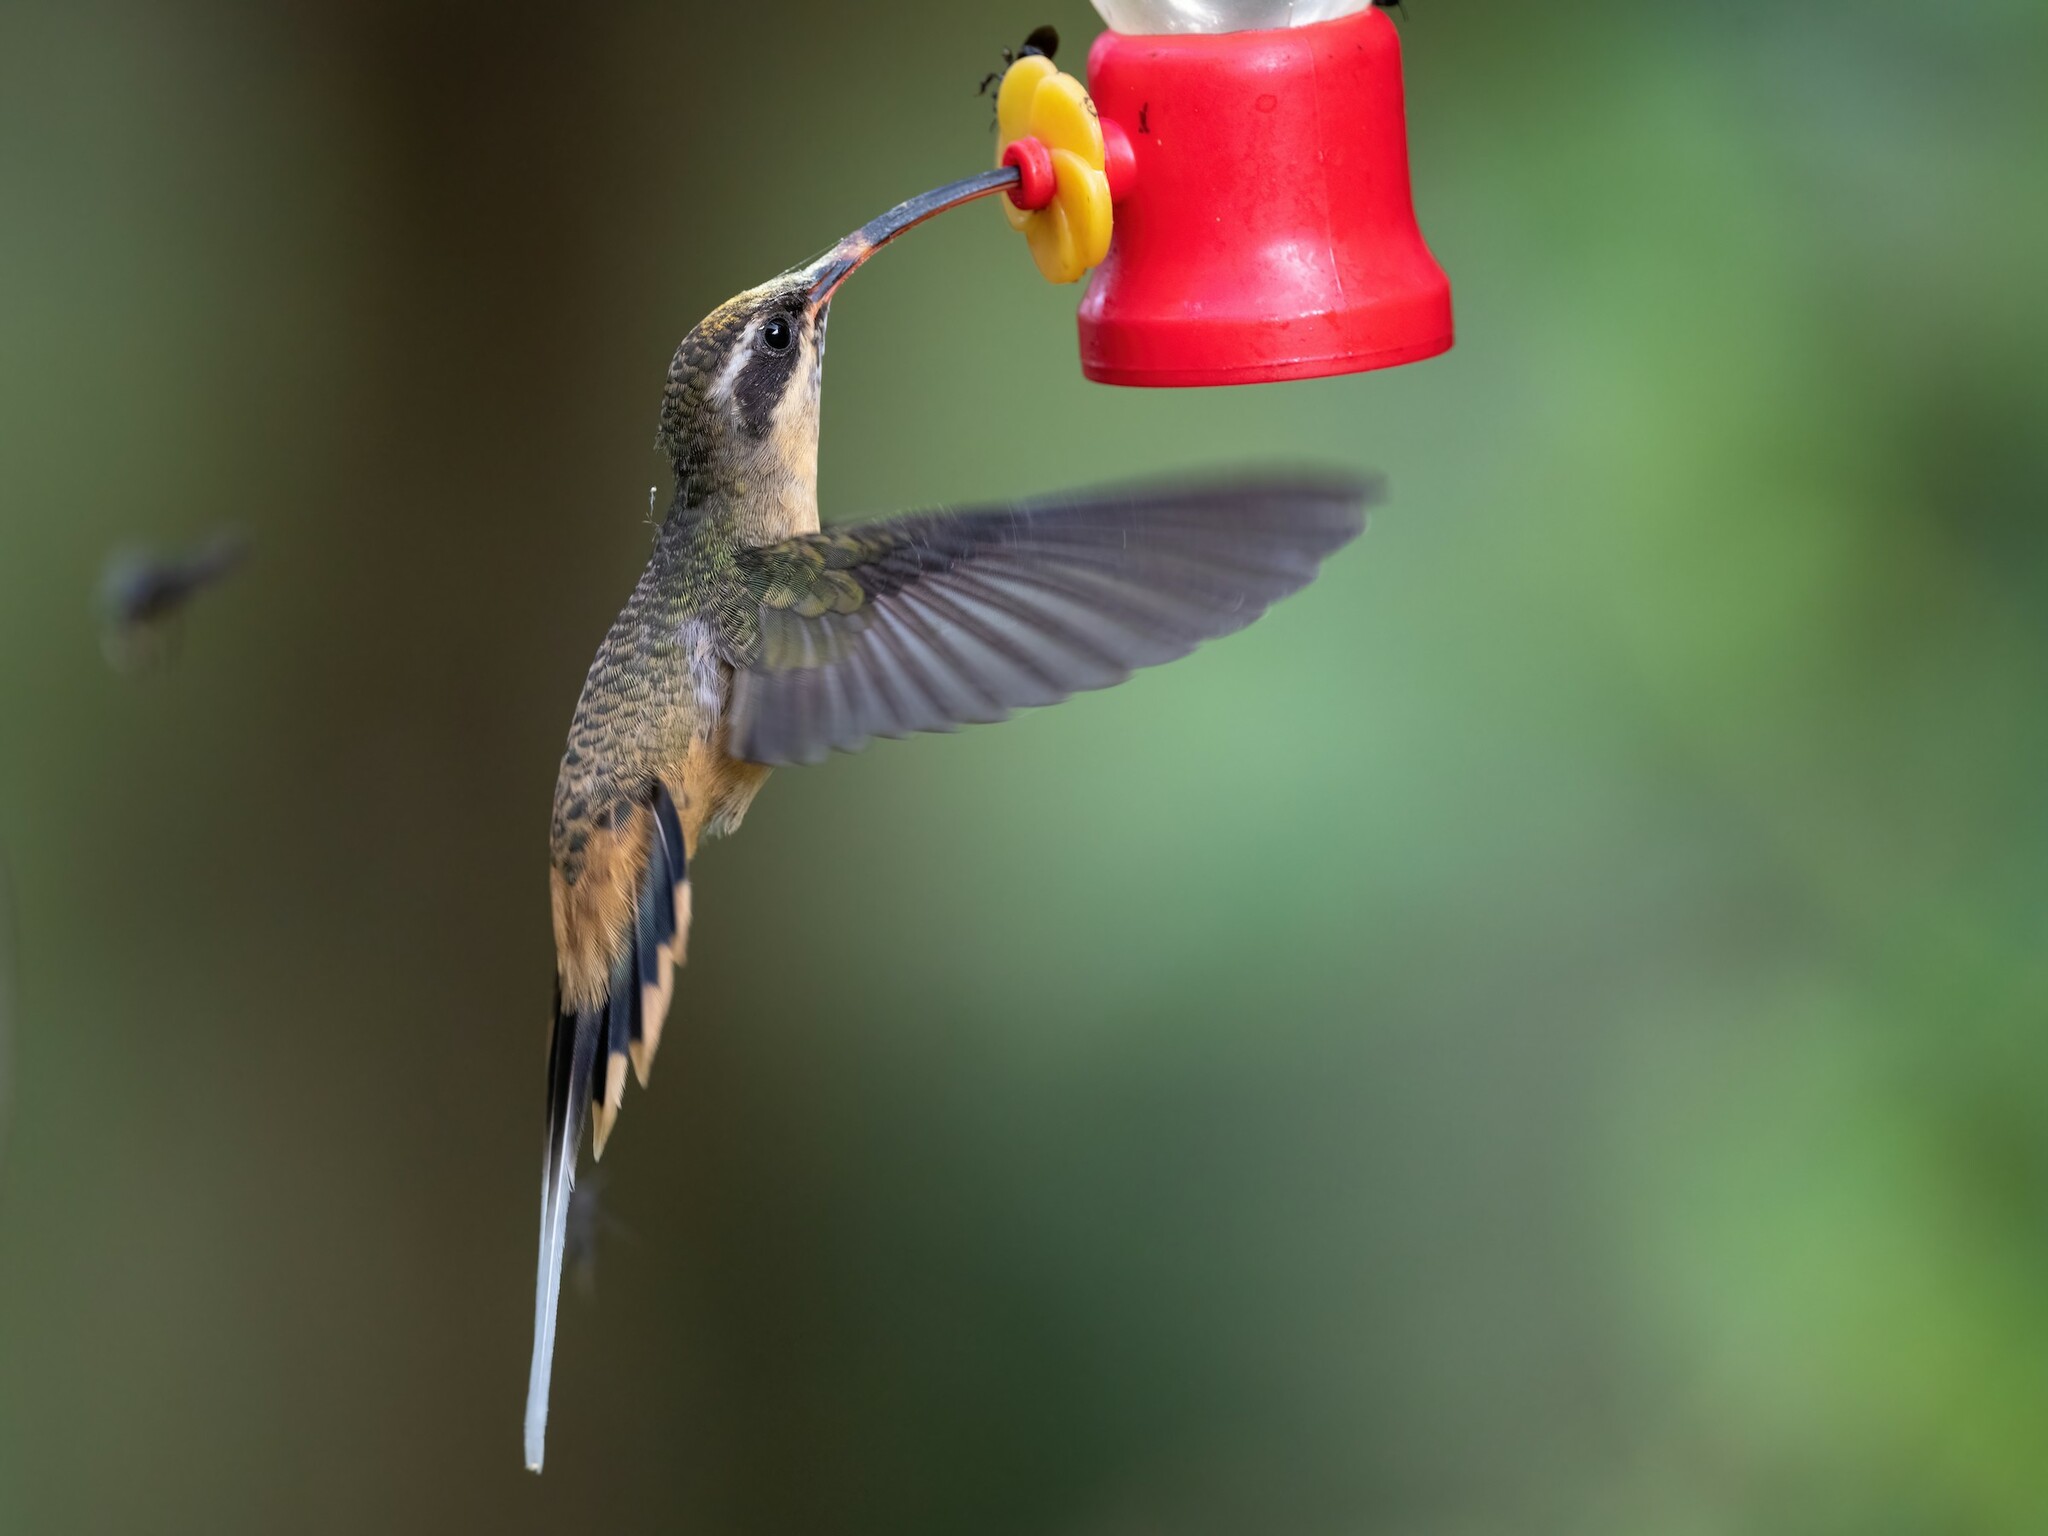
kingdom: Animalia
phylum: Chordata
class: Aves
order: Apodiformes
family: Trochilidae
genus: Phaethornis
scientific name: Phaethornis syrmatophorus
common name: Tawny-bellied hermit
